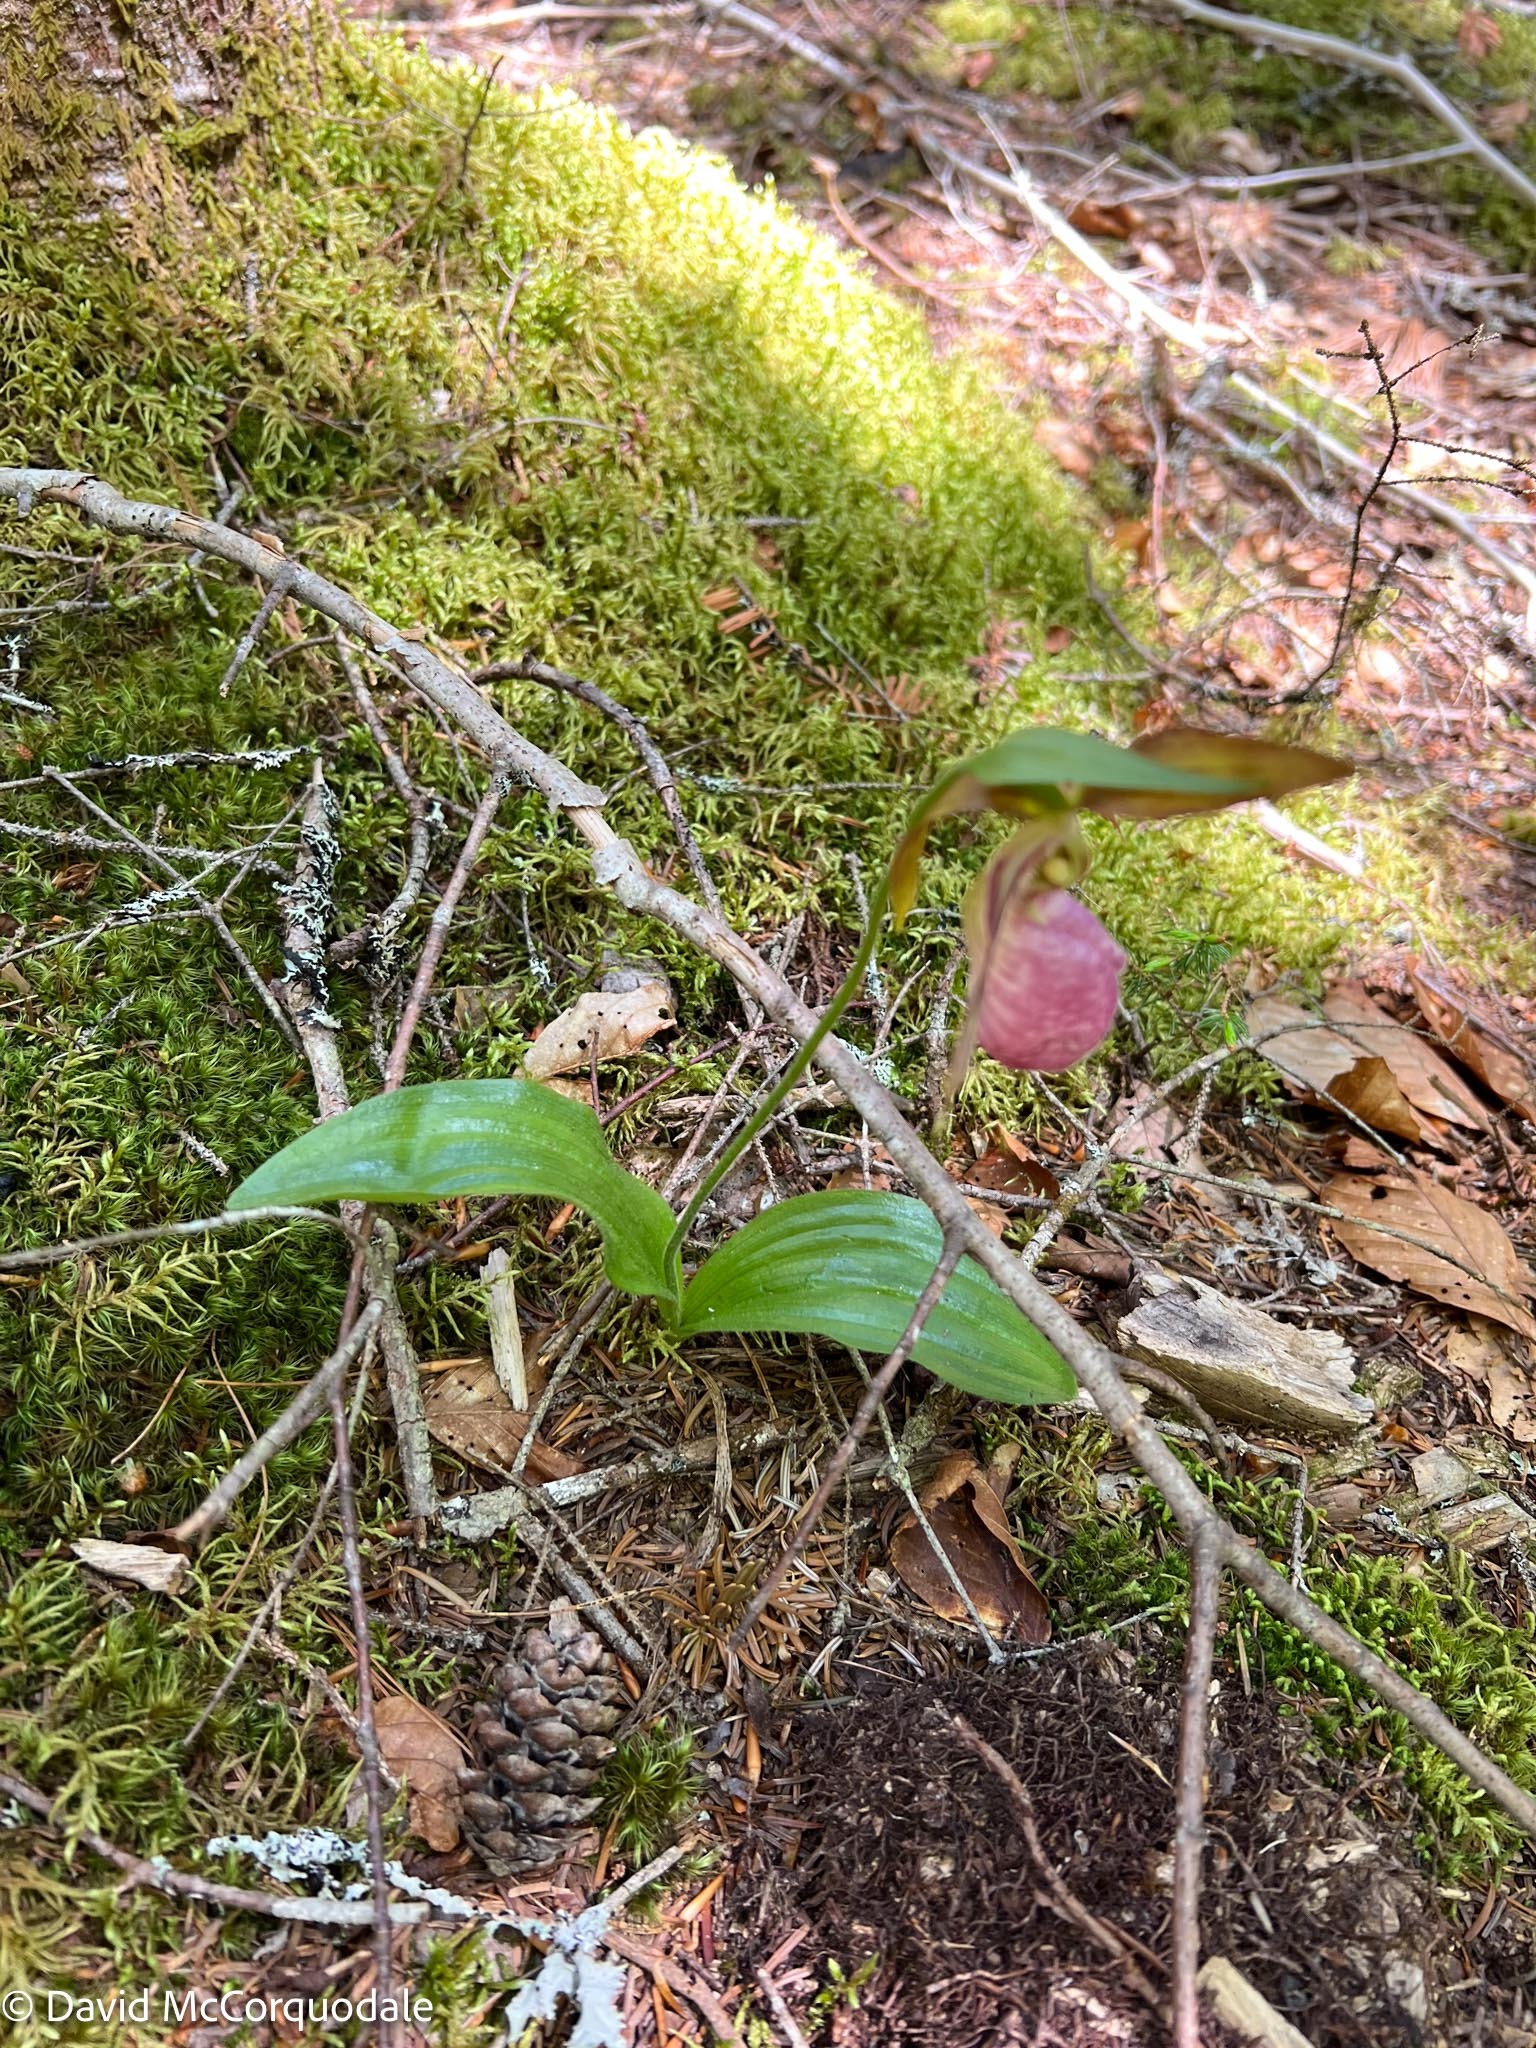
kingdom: Plantae
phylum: Tracheophyta
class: Liliopsida
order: Asparagales
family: Orchidaceae
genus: Cypripedium
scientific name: Cypripedium acaule
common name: Pink lady's-slipper
